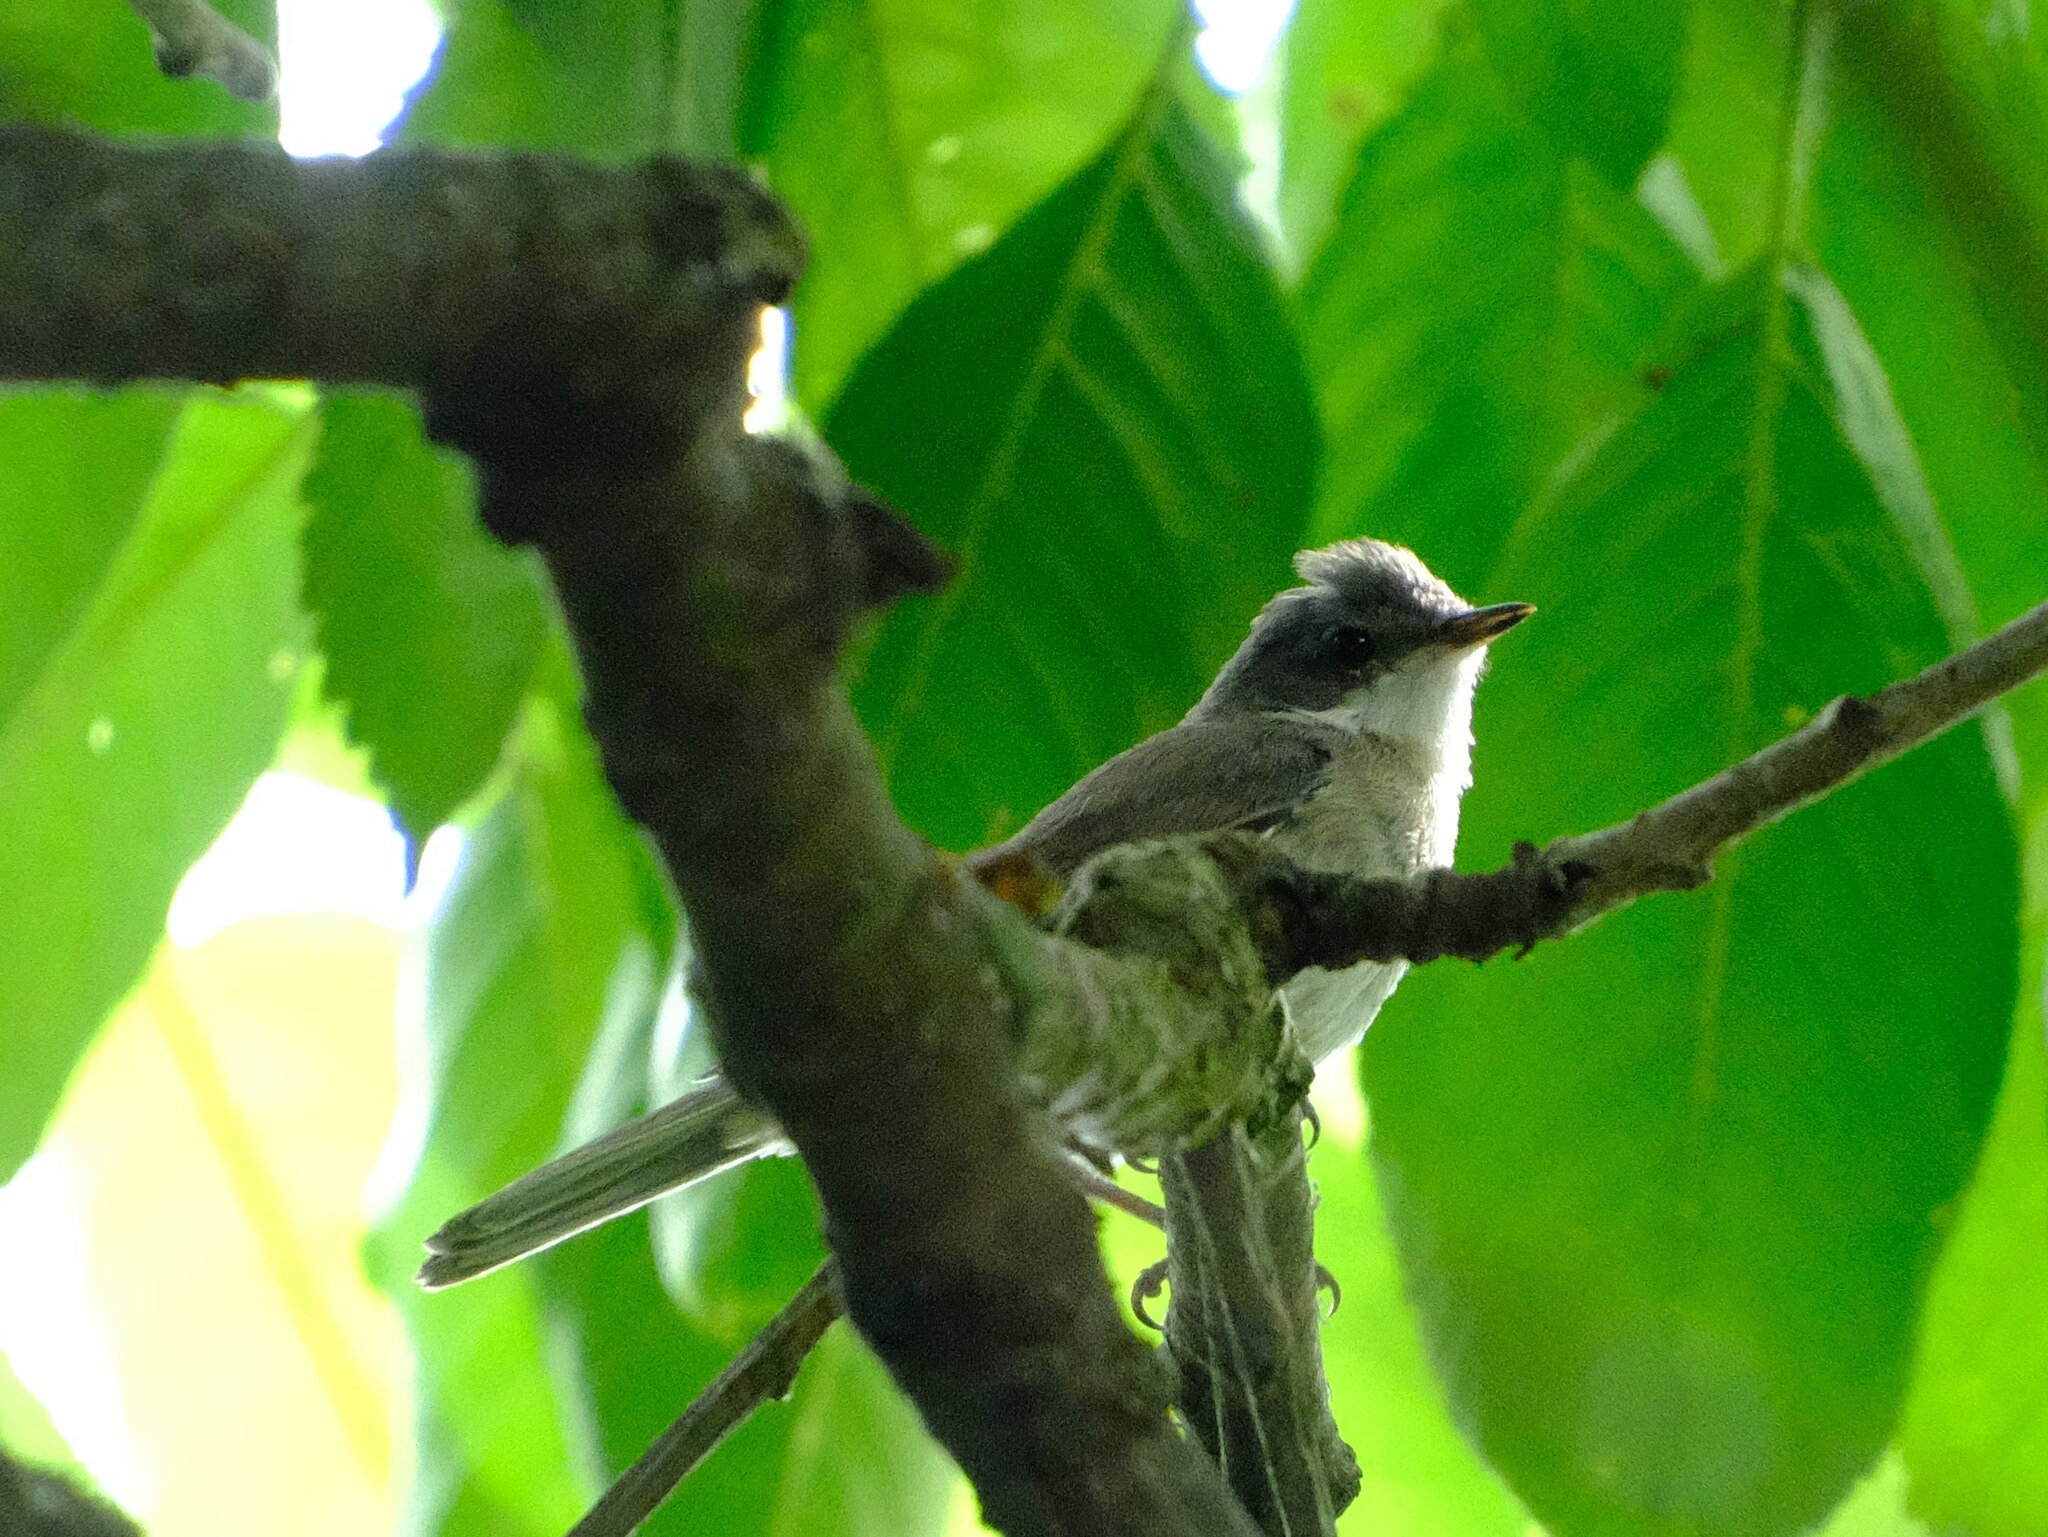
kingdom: Animalia
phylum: Chordata
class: Aves
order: Passeriformes
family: Sylviidae
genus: Sylvia
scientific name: Sylvia curruca
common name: Lesser whitethroat
